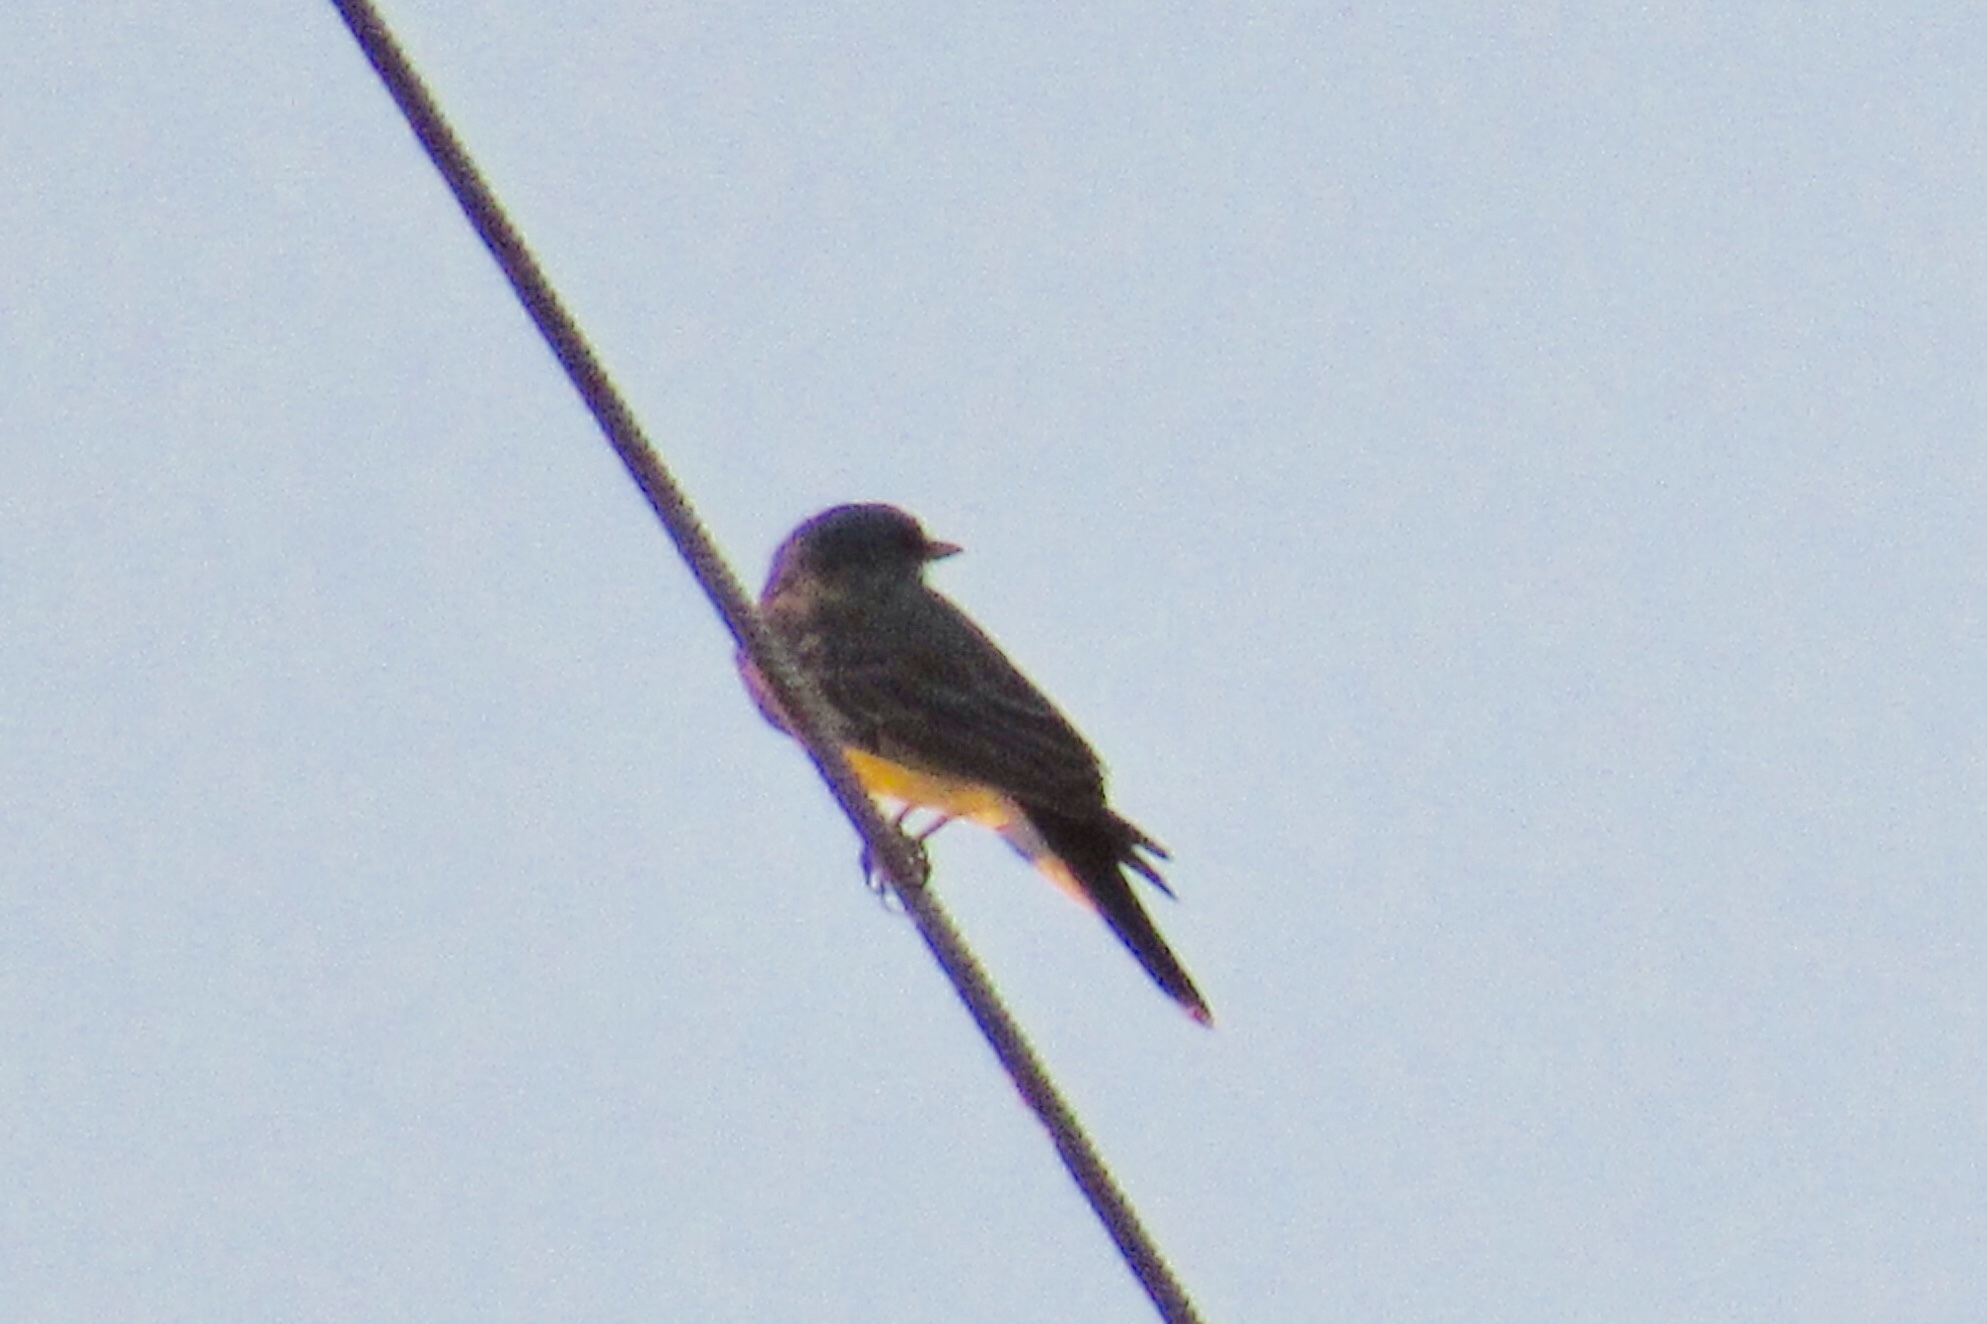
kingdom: Animalia
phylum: Chordata
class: Aves
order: Passeriformes
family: Tyrannidae
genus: Pyrocephalus
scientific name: Pyrocephalus rubinus
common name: Vermilion flycatcher
